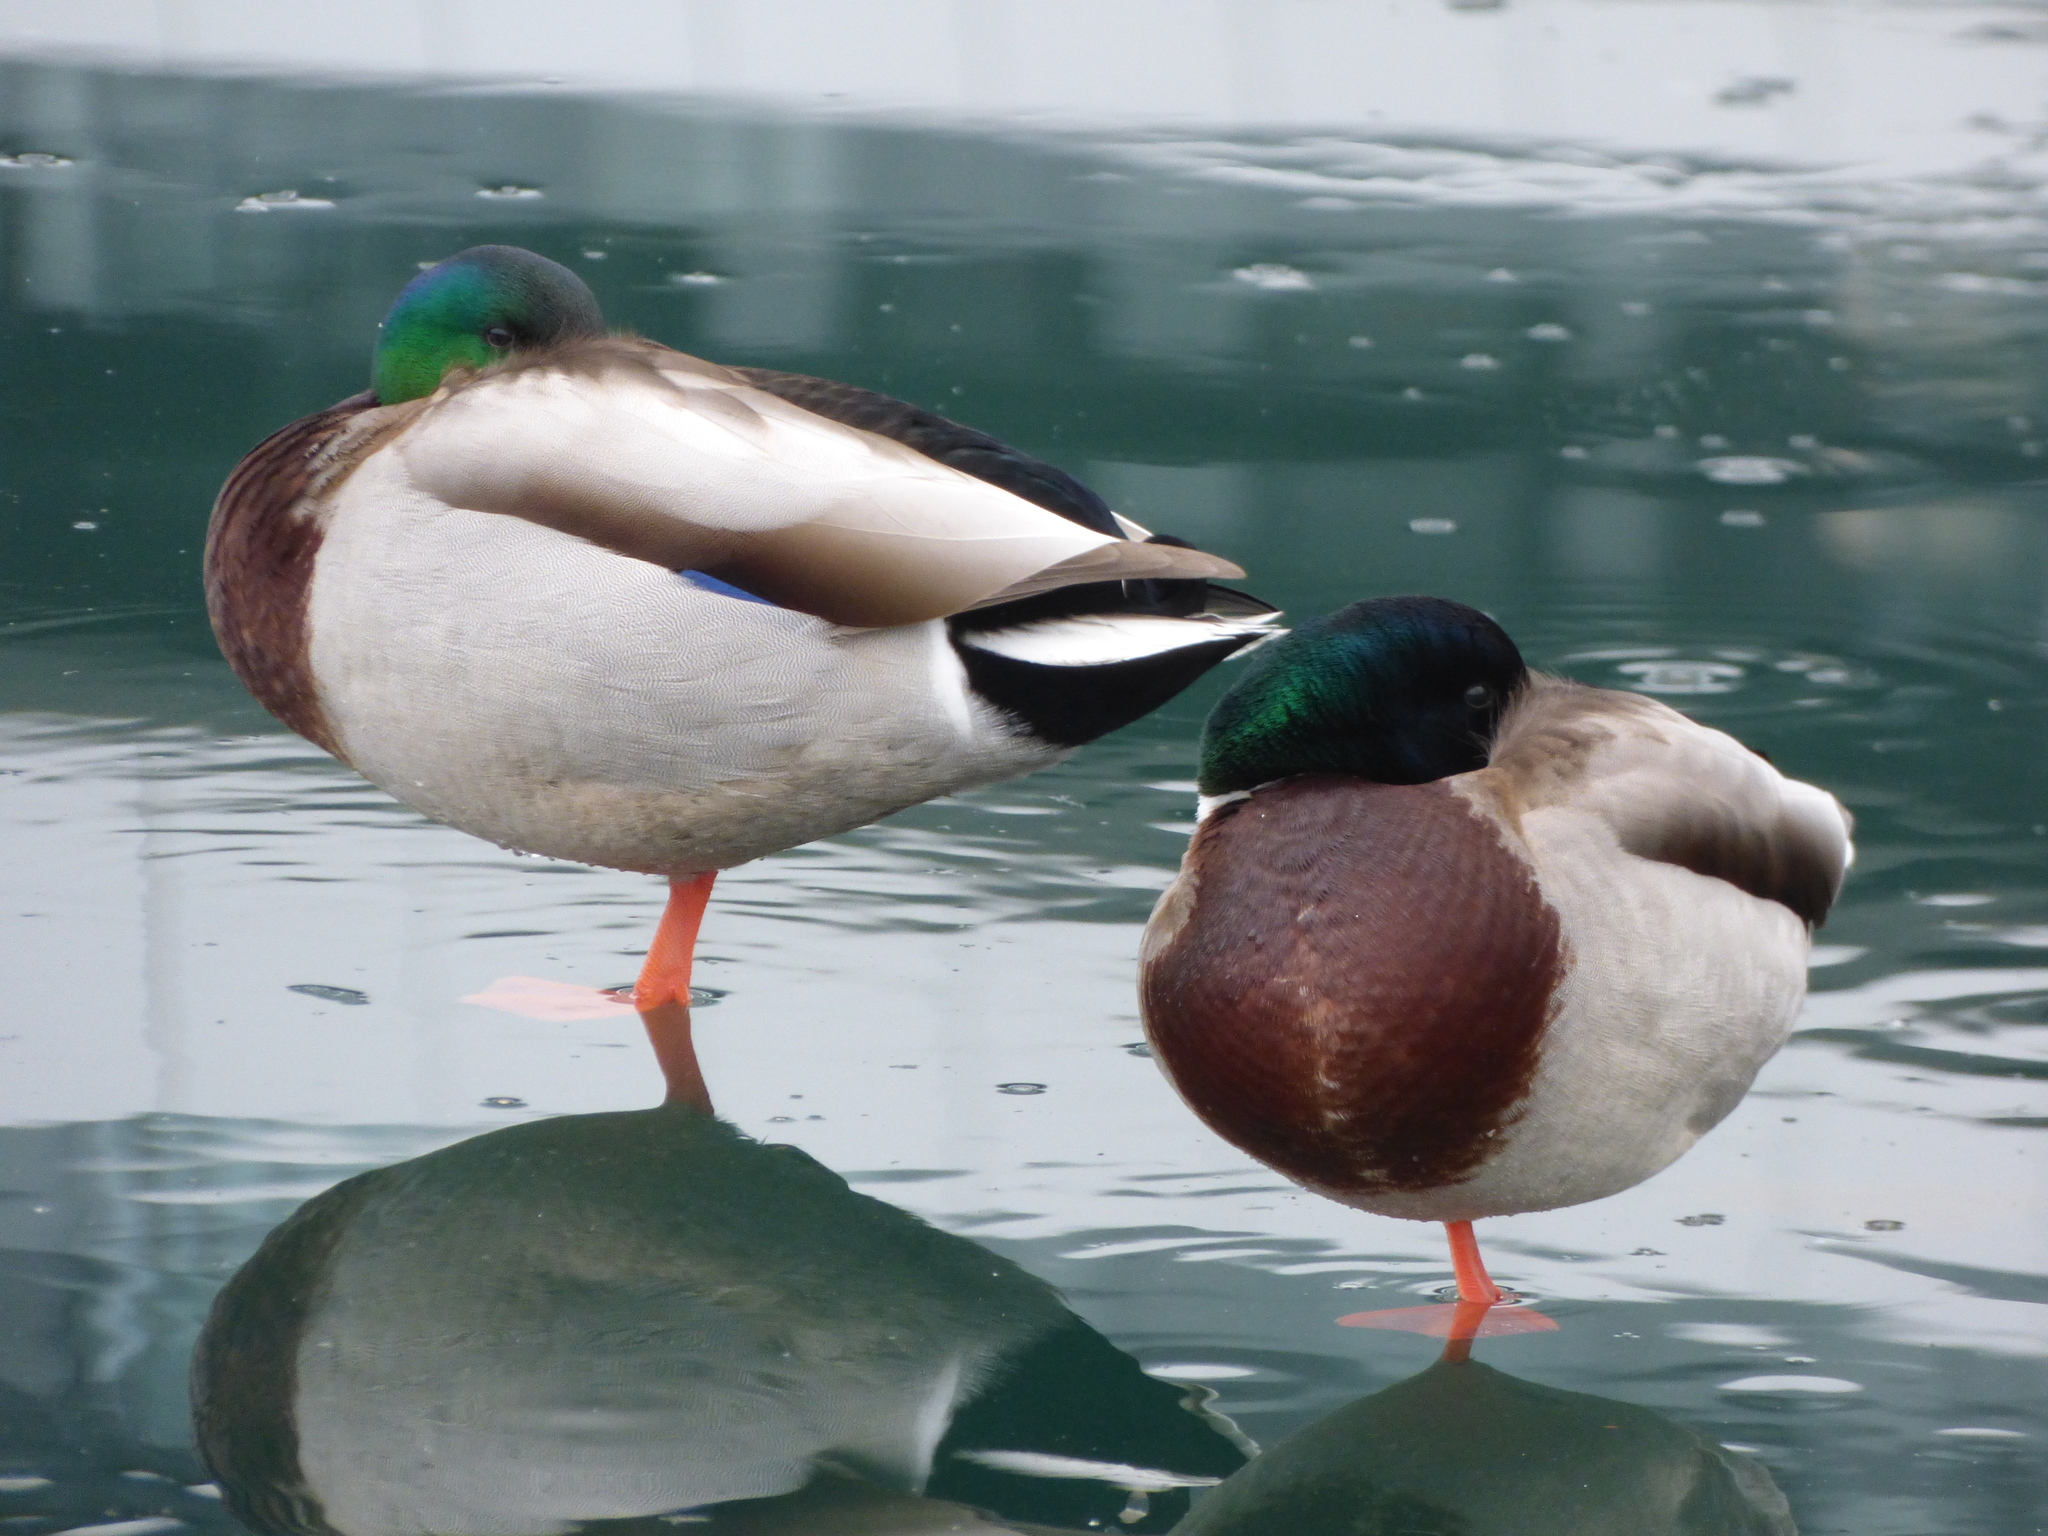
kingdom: Animalia
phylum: Chordata
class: Aves
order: Anseriformes
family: Anatidae
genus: Anas
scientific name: Anas platyrhynchos
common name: Mallard
